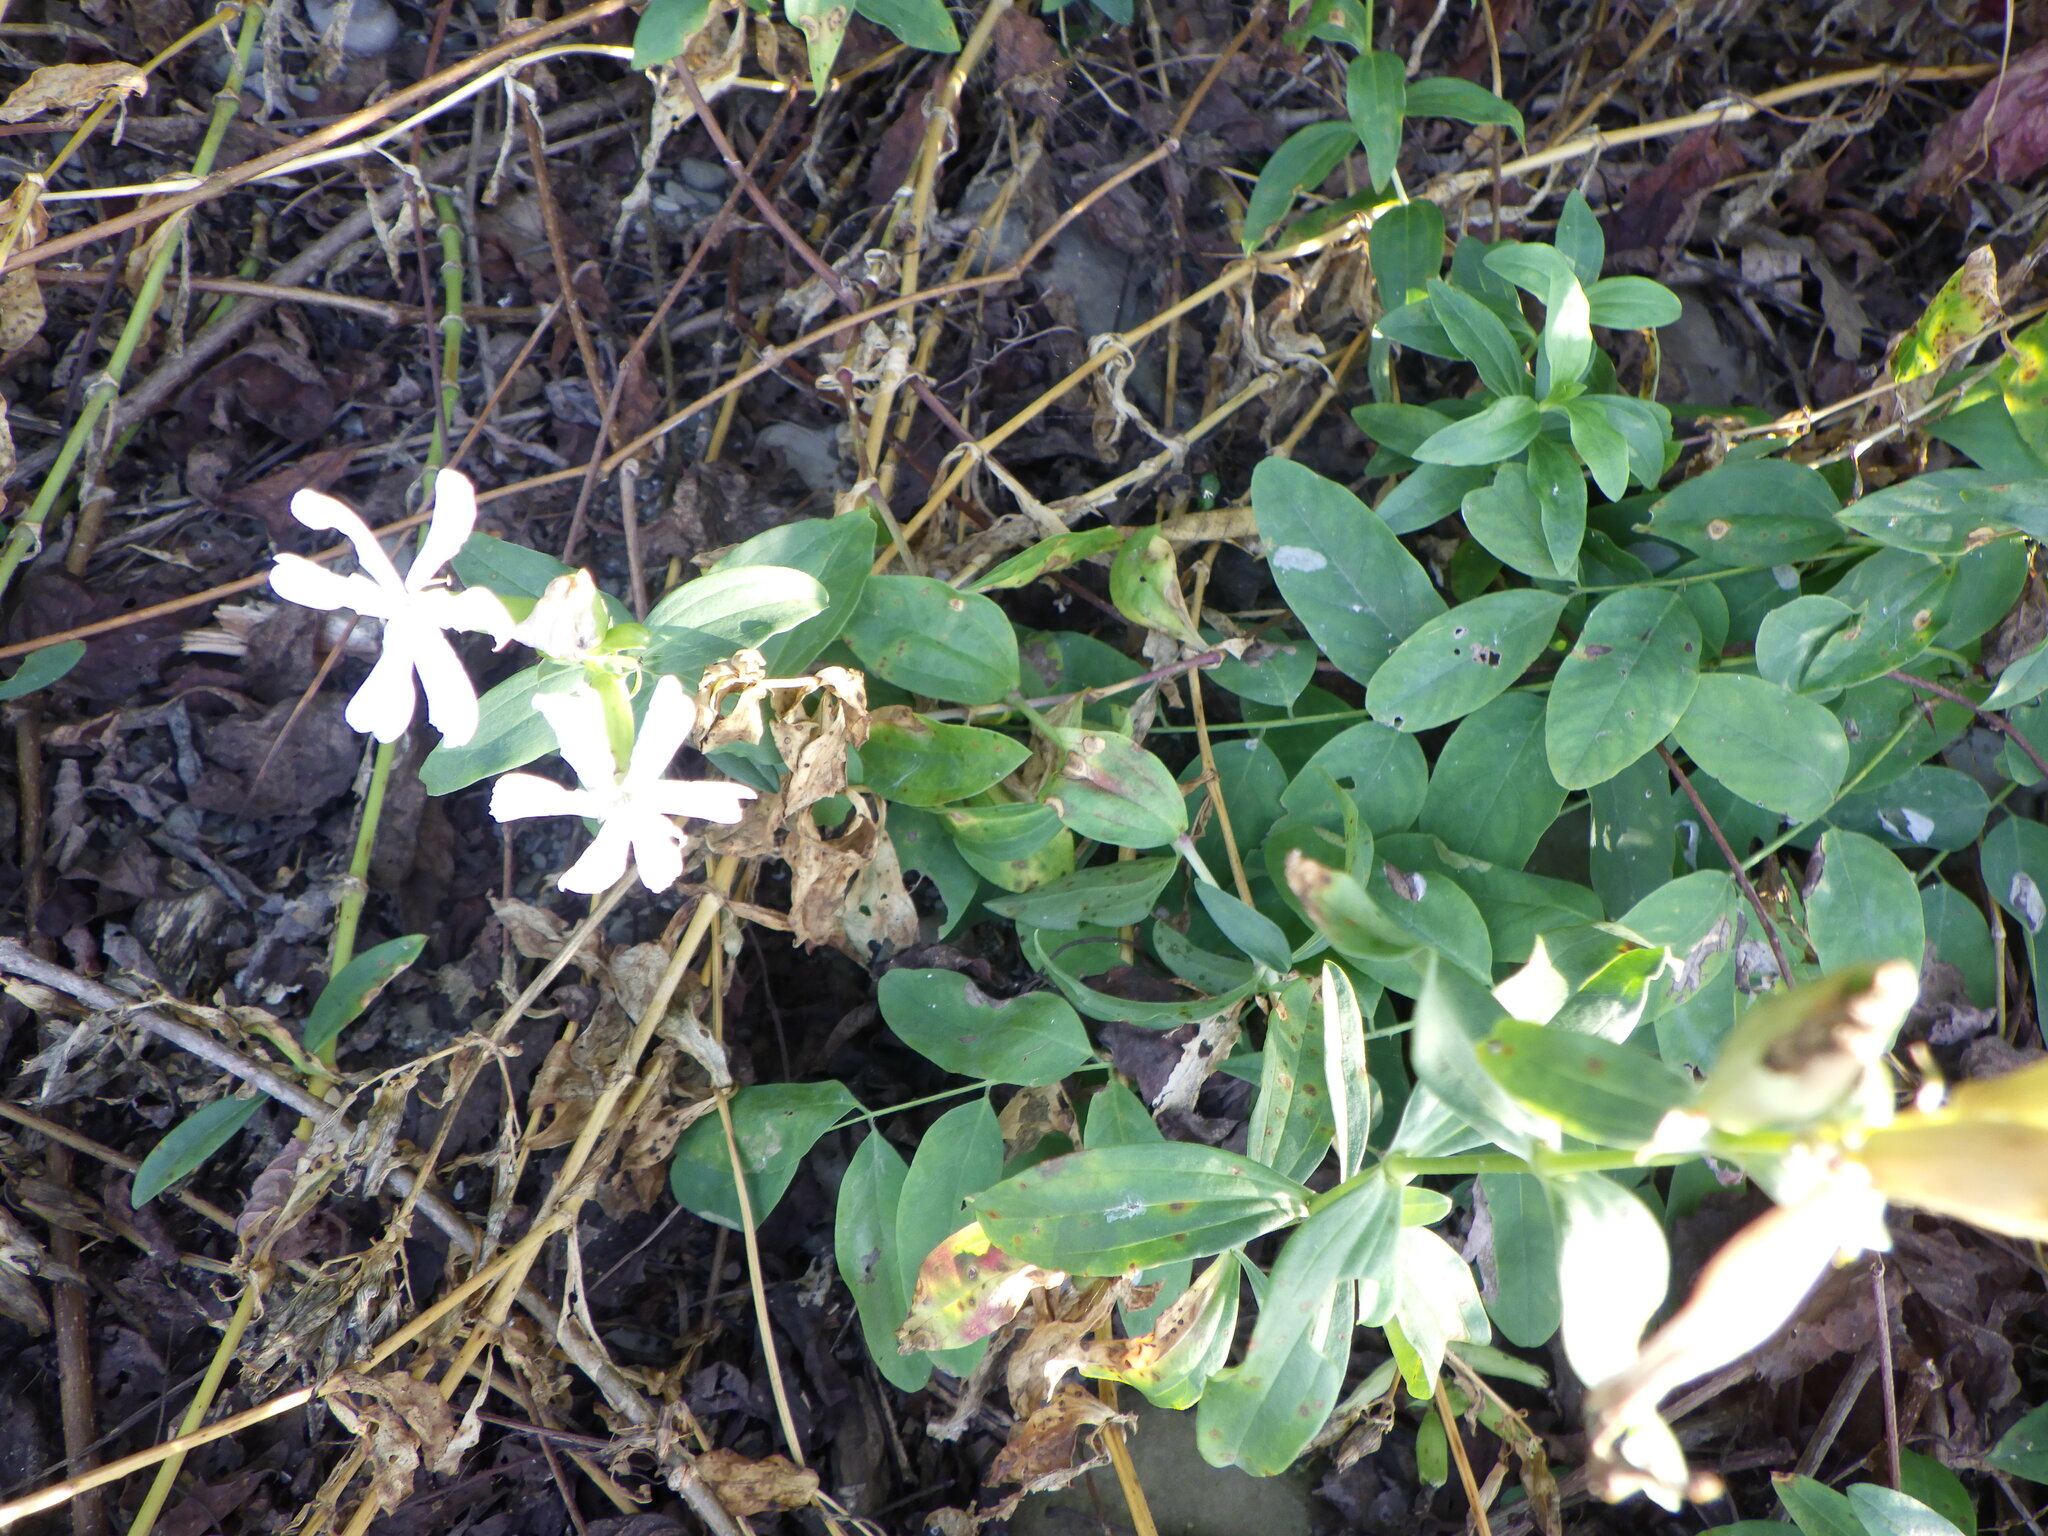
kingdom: Plantae
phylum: Tracheophyta
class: Magnoliopsida
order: Caryophyllales
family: Caryophyllaceae
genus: Saponaria
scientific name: Saponaria officinalis
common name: Soapwort
